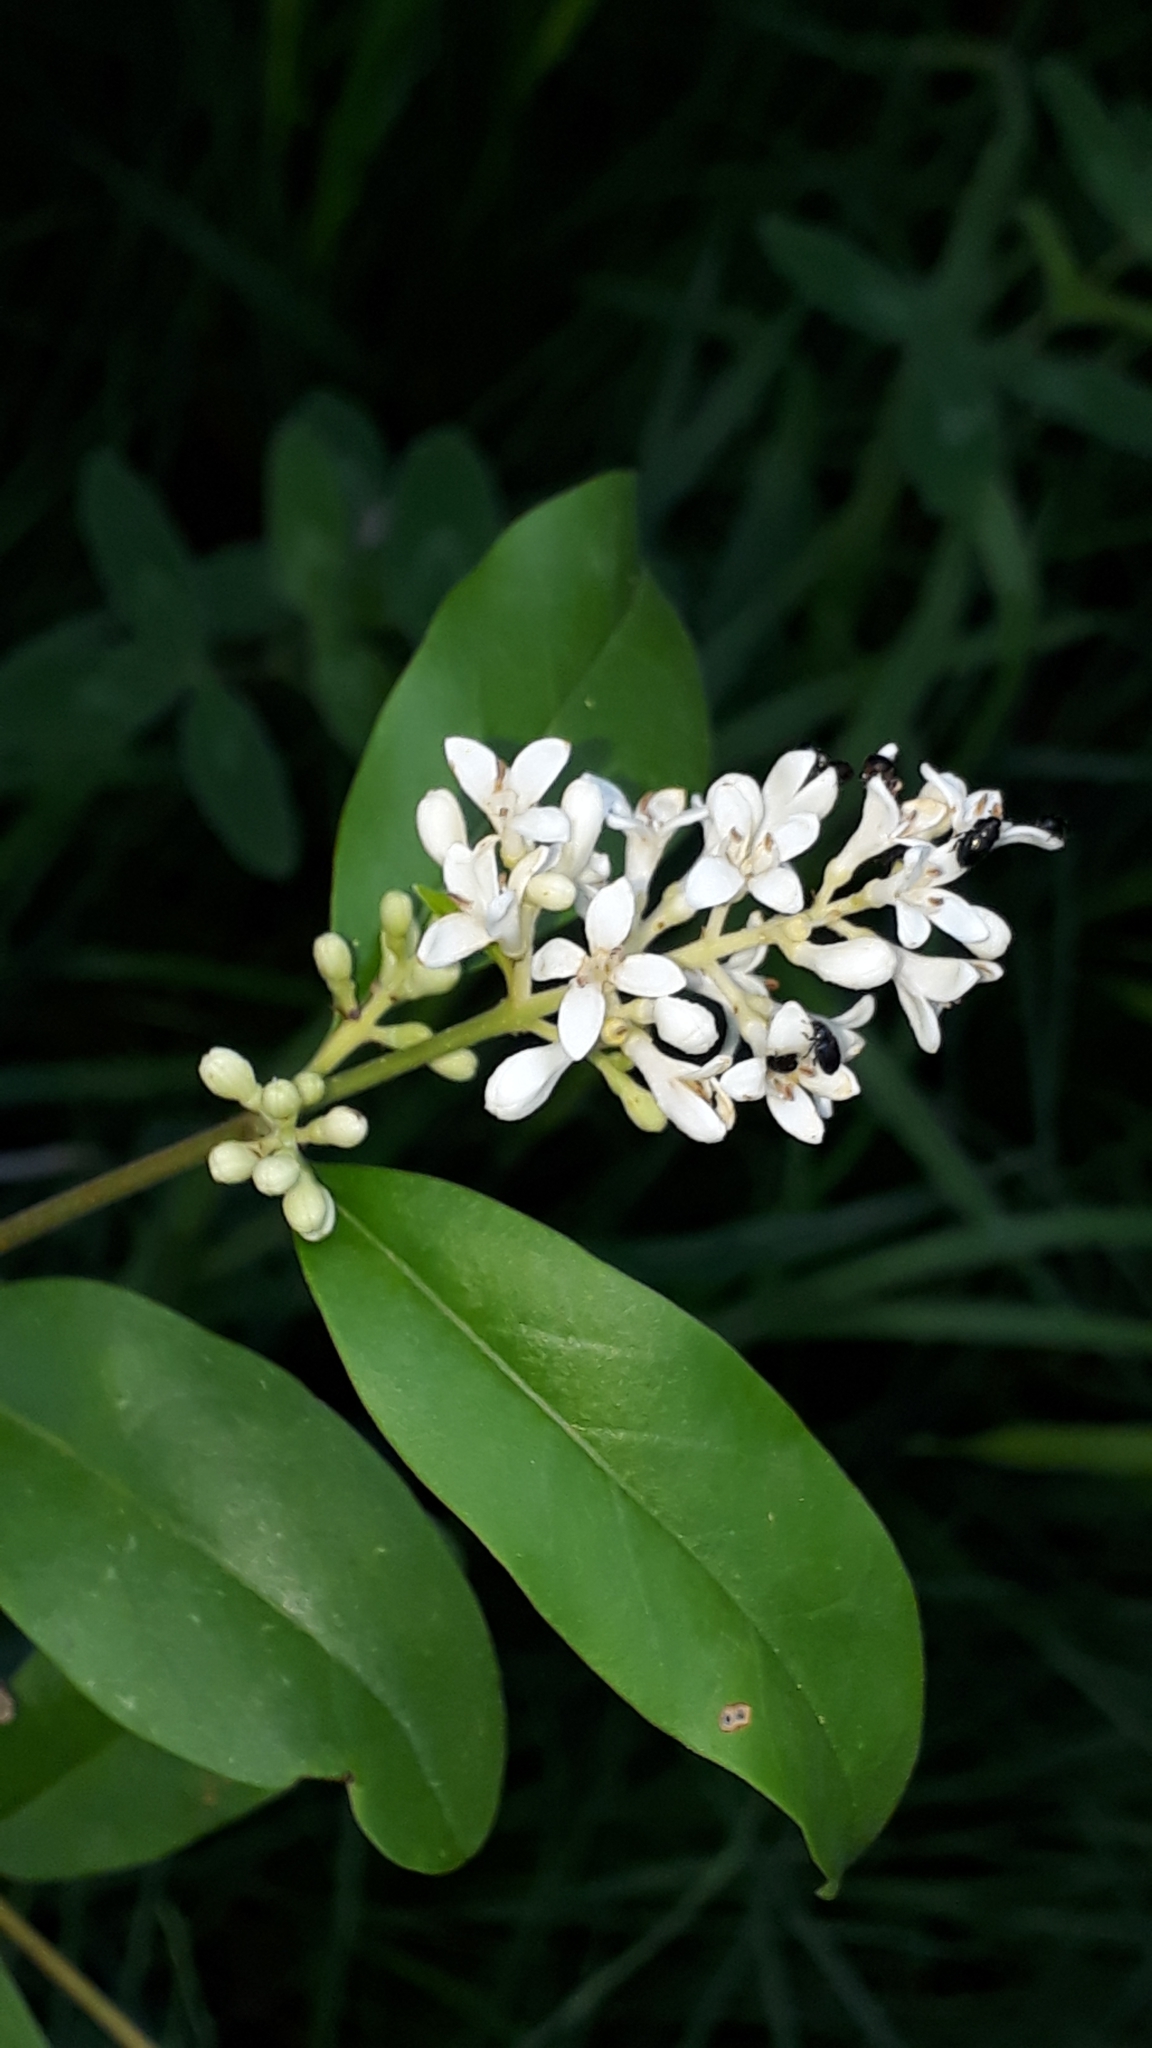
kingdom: Plantae
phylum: Tracheophyta
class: Magnoliopsida
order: Lamiales
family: Oleaceae
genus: Ligustrum
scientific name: Ligustrum vulgare
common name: Wild privet
